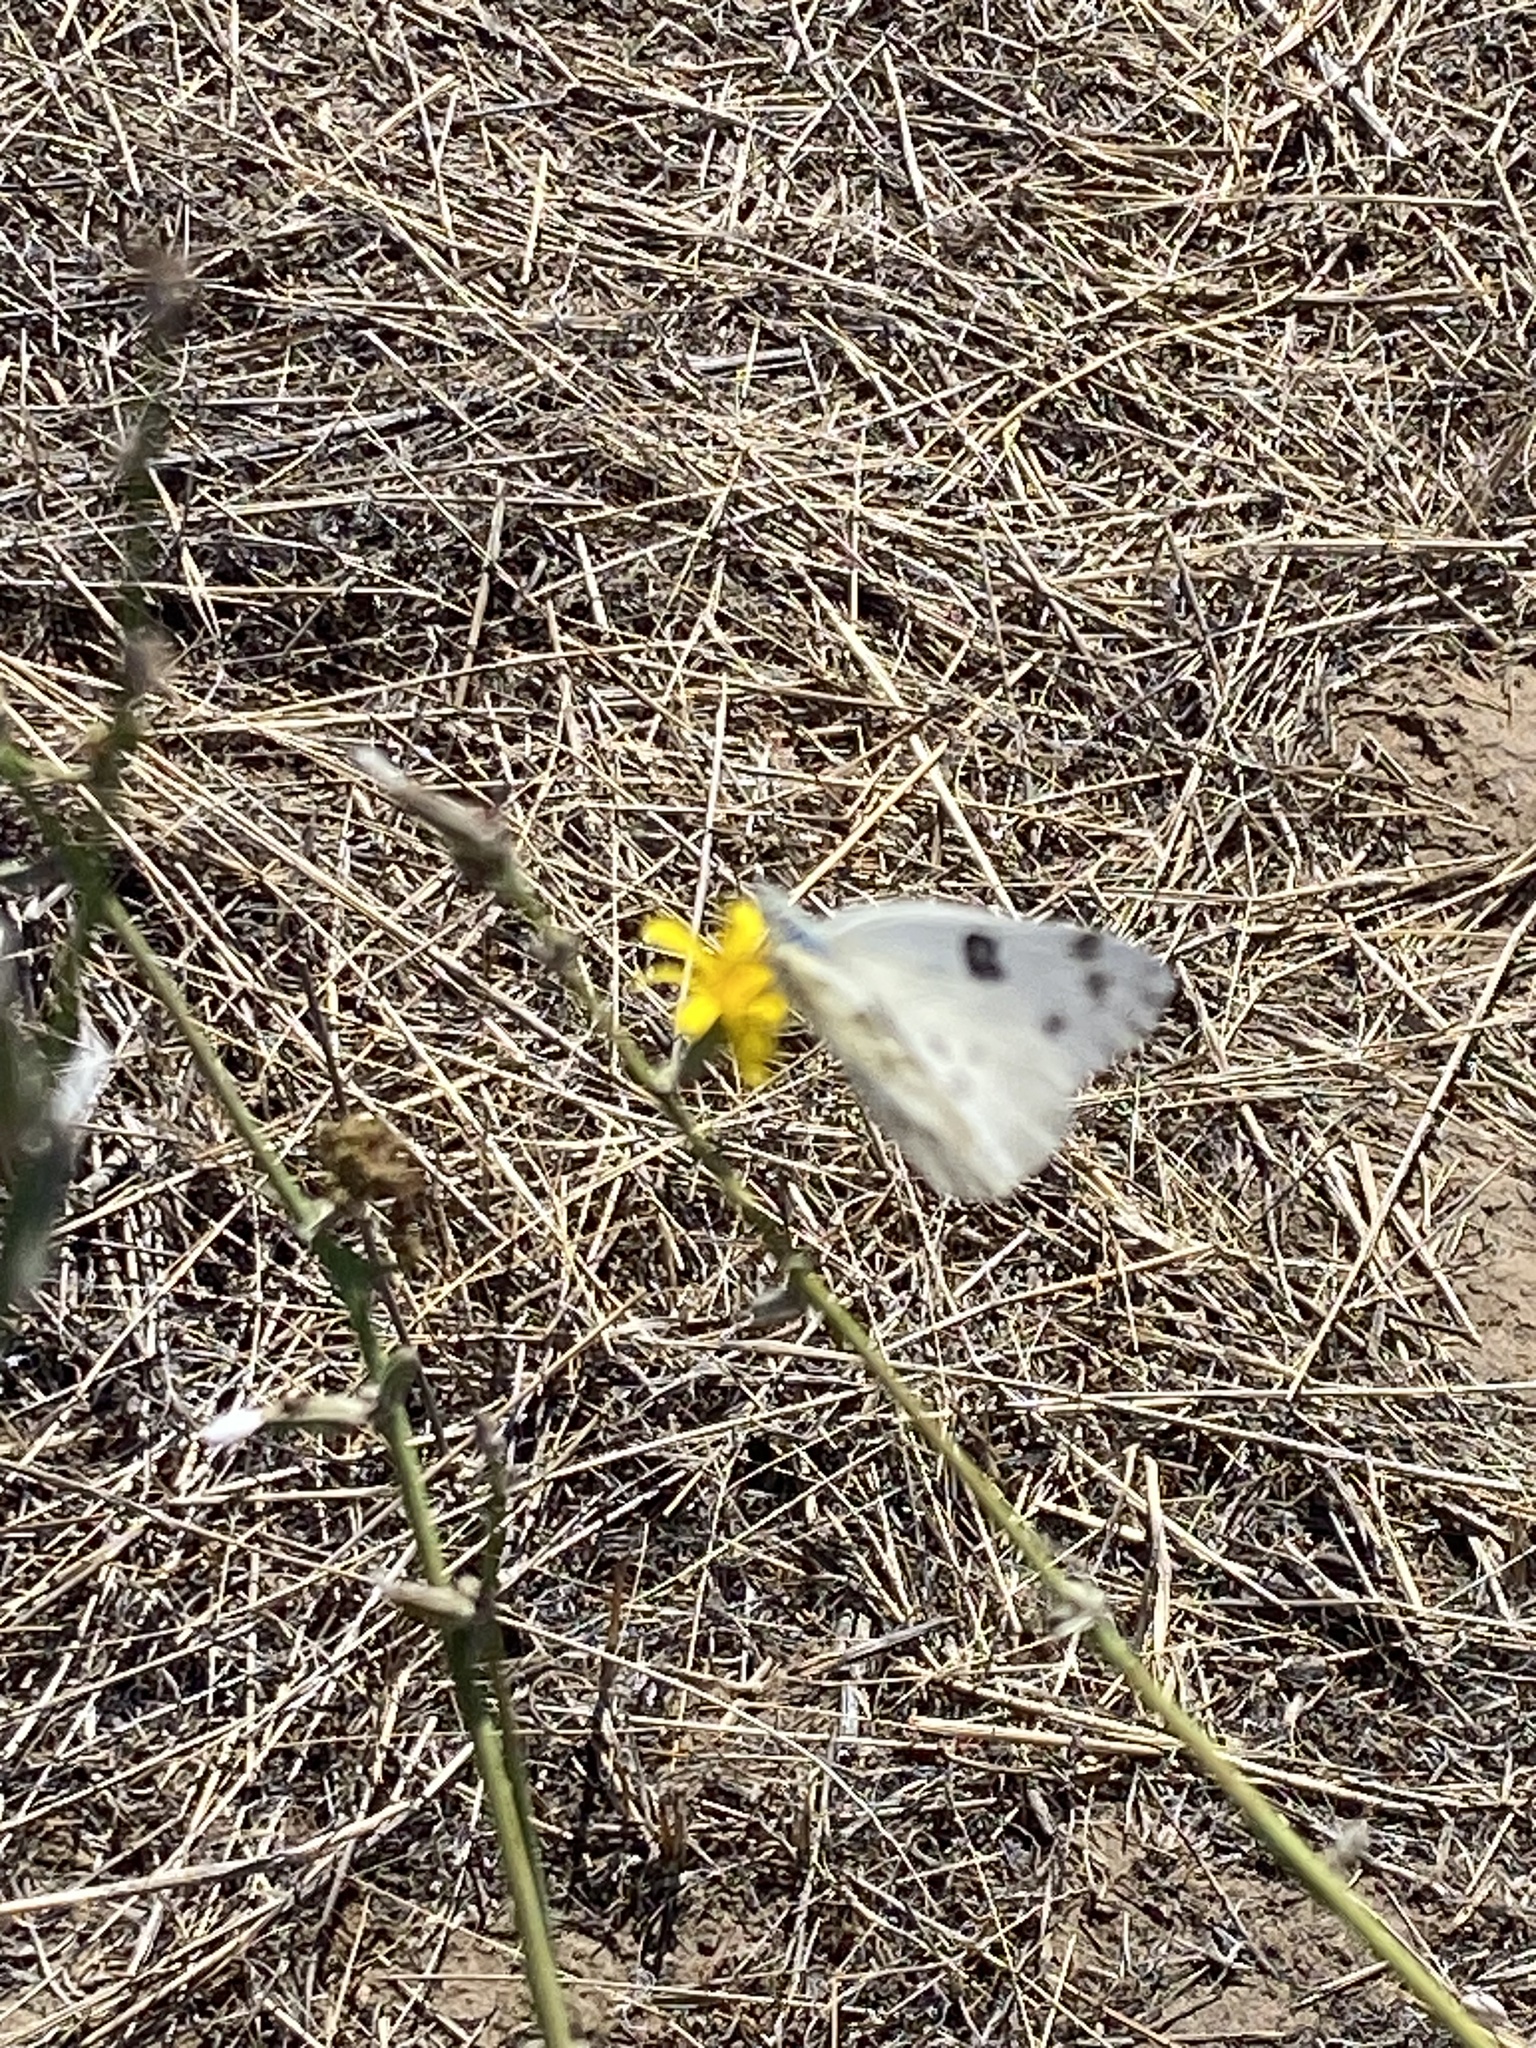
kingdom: Animalia
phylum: Arthropoda
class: Insecta
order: Lepidoptera
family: Pieridae
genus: Pontia
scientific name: Pontia beckerii
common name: Becker's white
